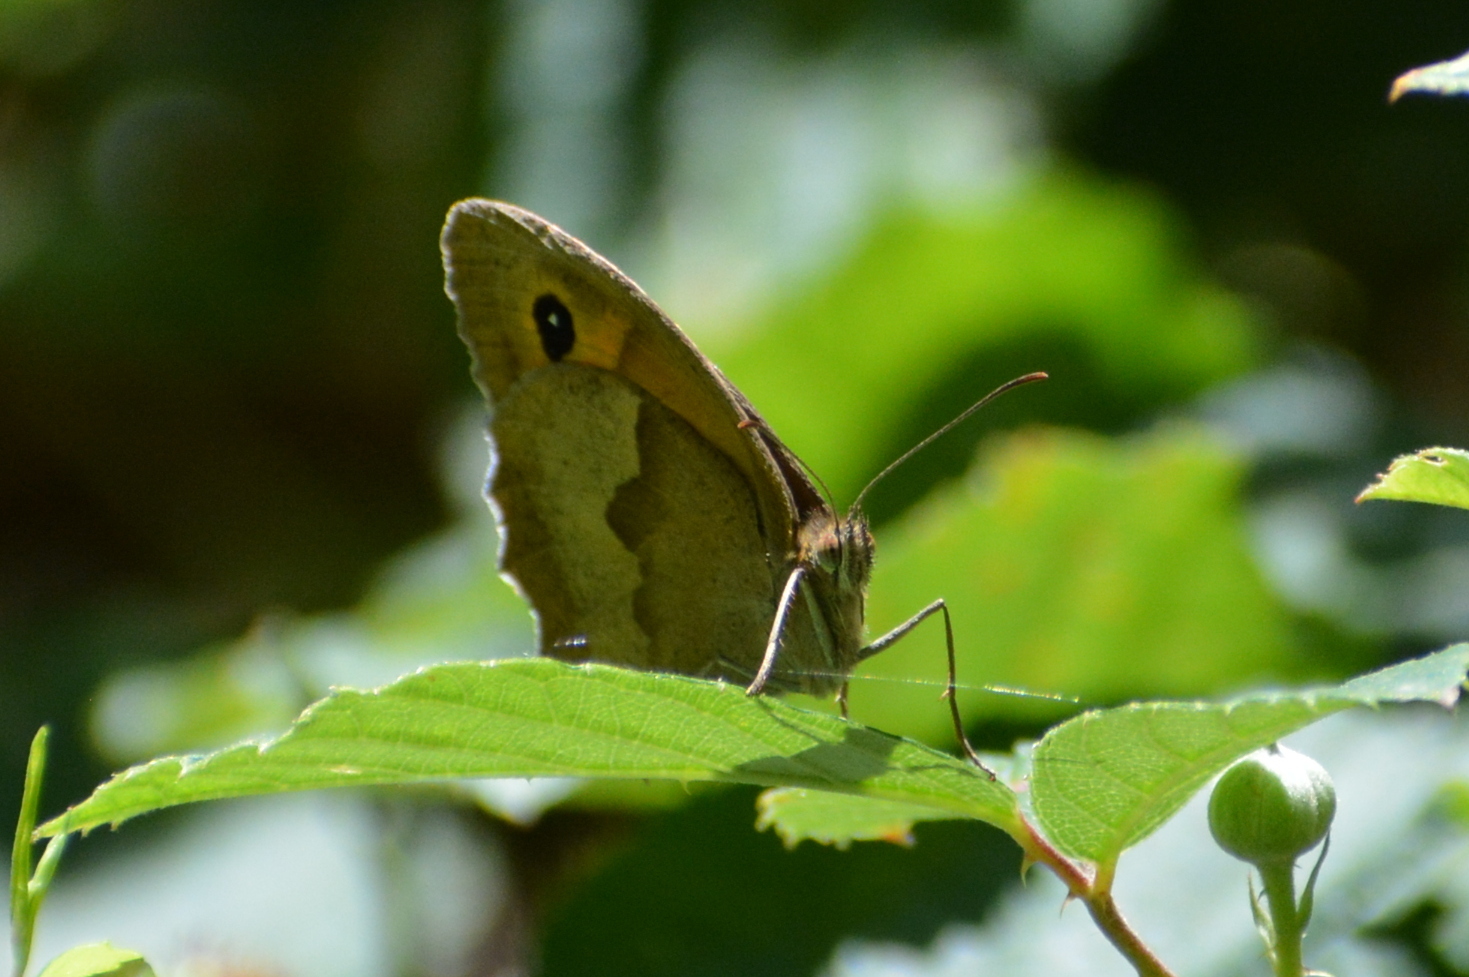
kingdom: Animalia
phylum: Arthropoda
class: Insecta
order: Lepidoptera
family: Nymphalidae
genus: Maniola
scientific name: Maniola jurtina
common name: Meadow brown
